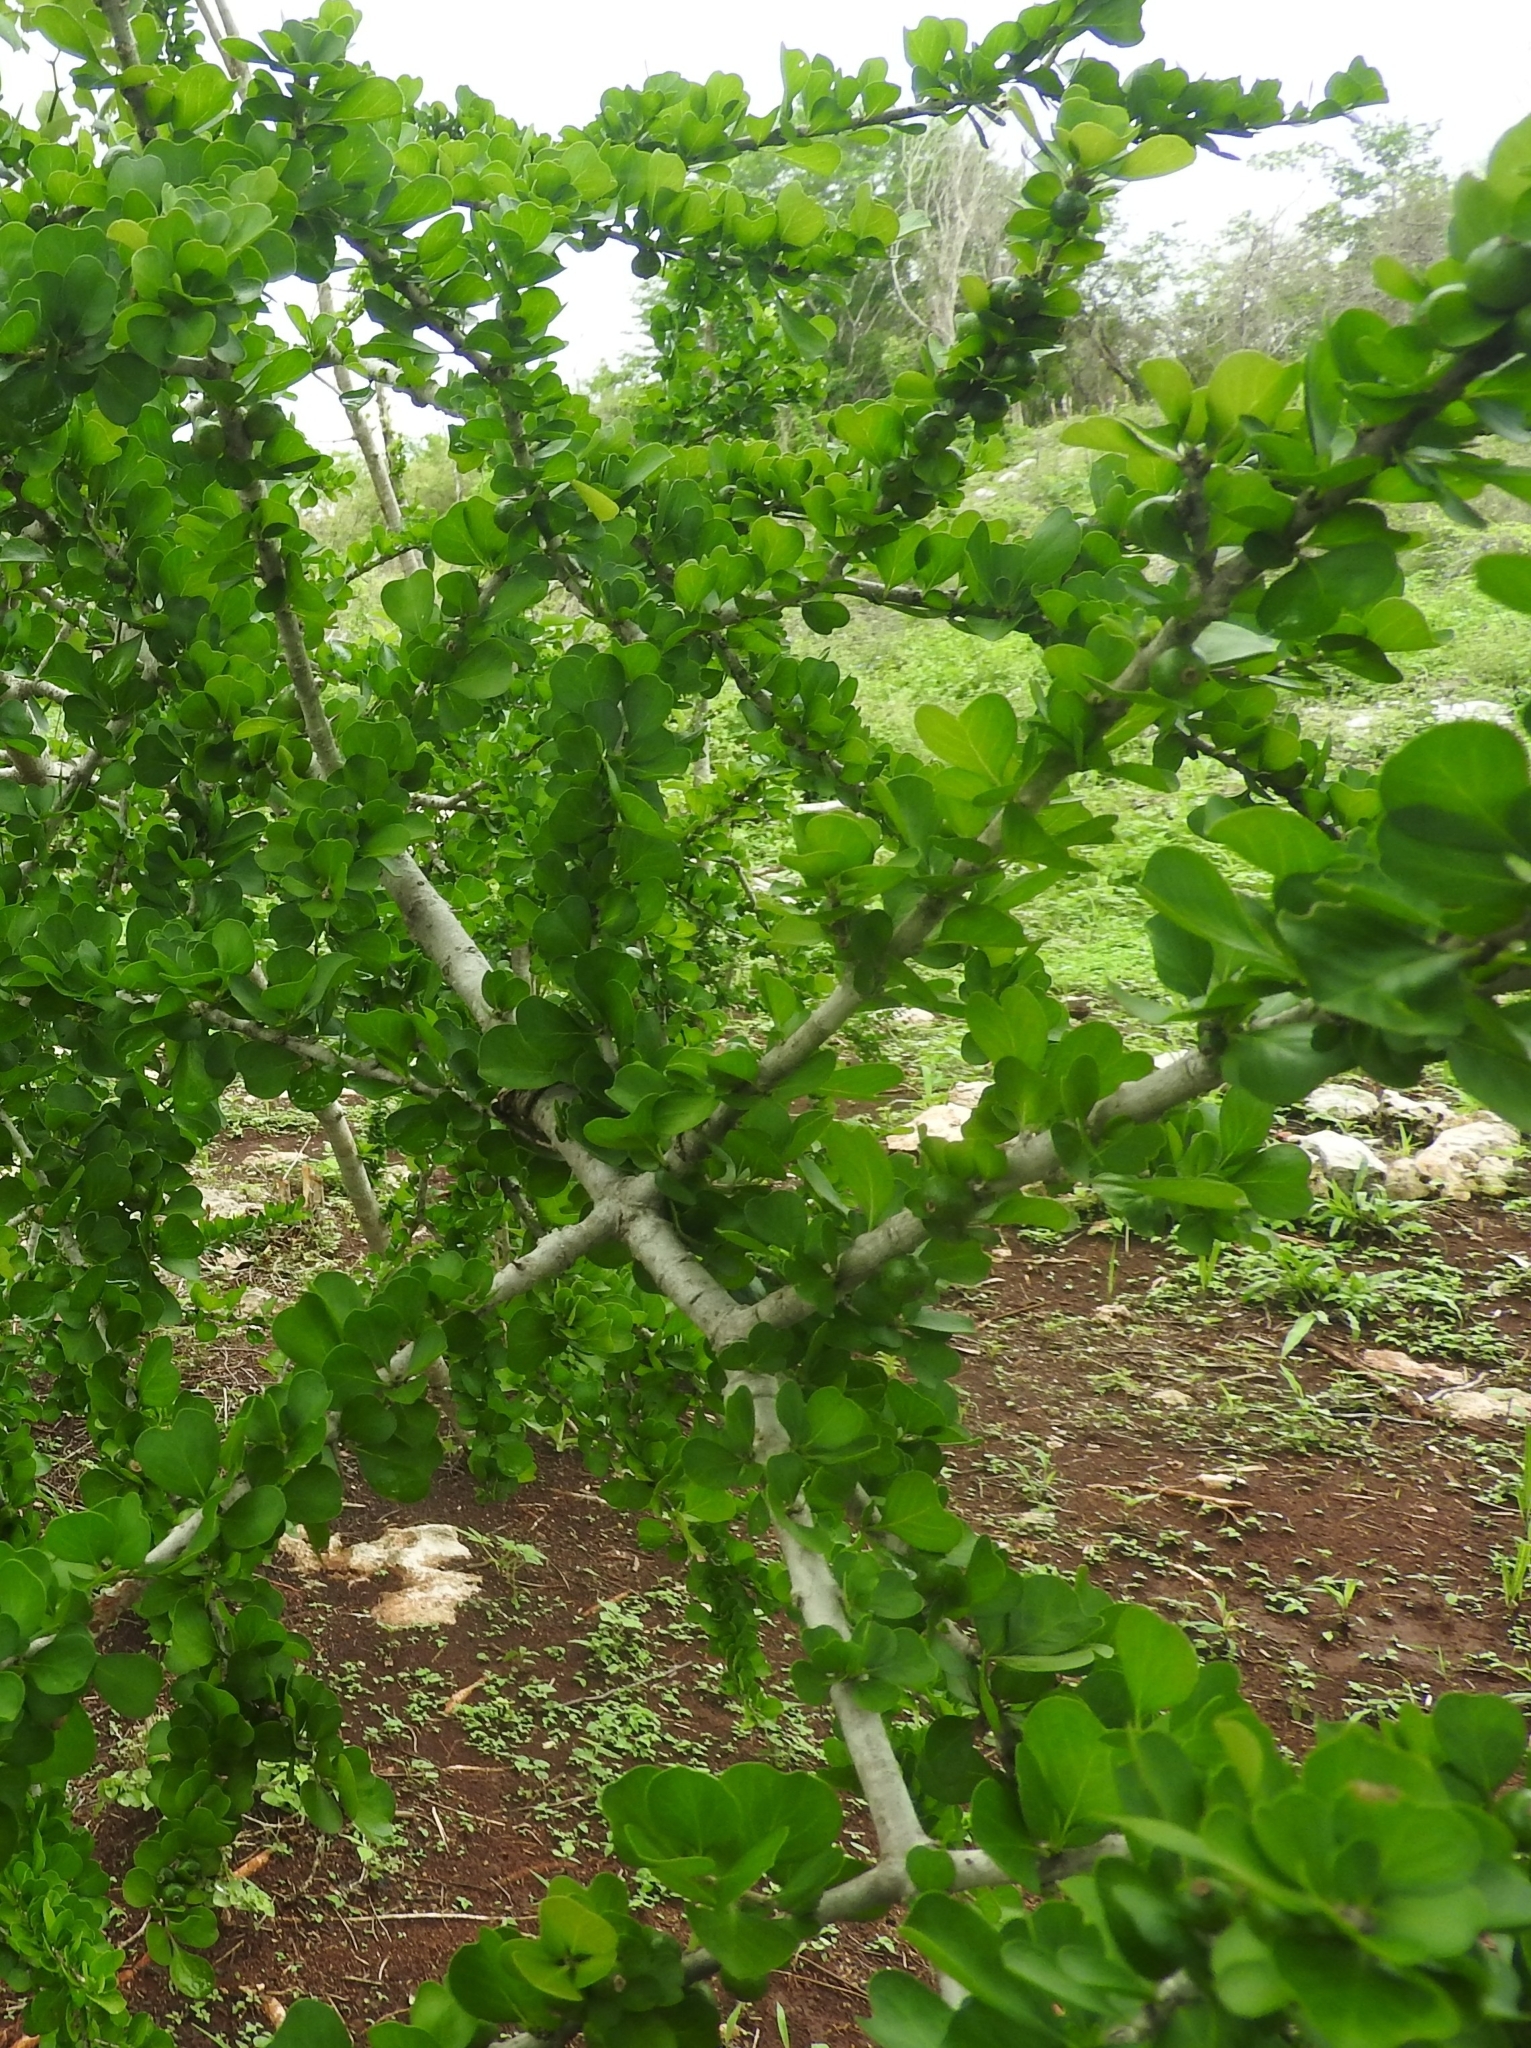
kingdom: Plantae
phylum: Tracheophyta
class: Magnoliopsida
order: Gentianales
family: Rubiaceae
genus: Randia
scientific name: Randia obcordata
